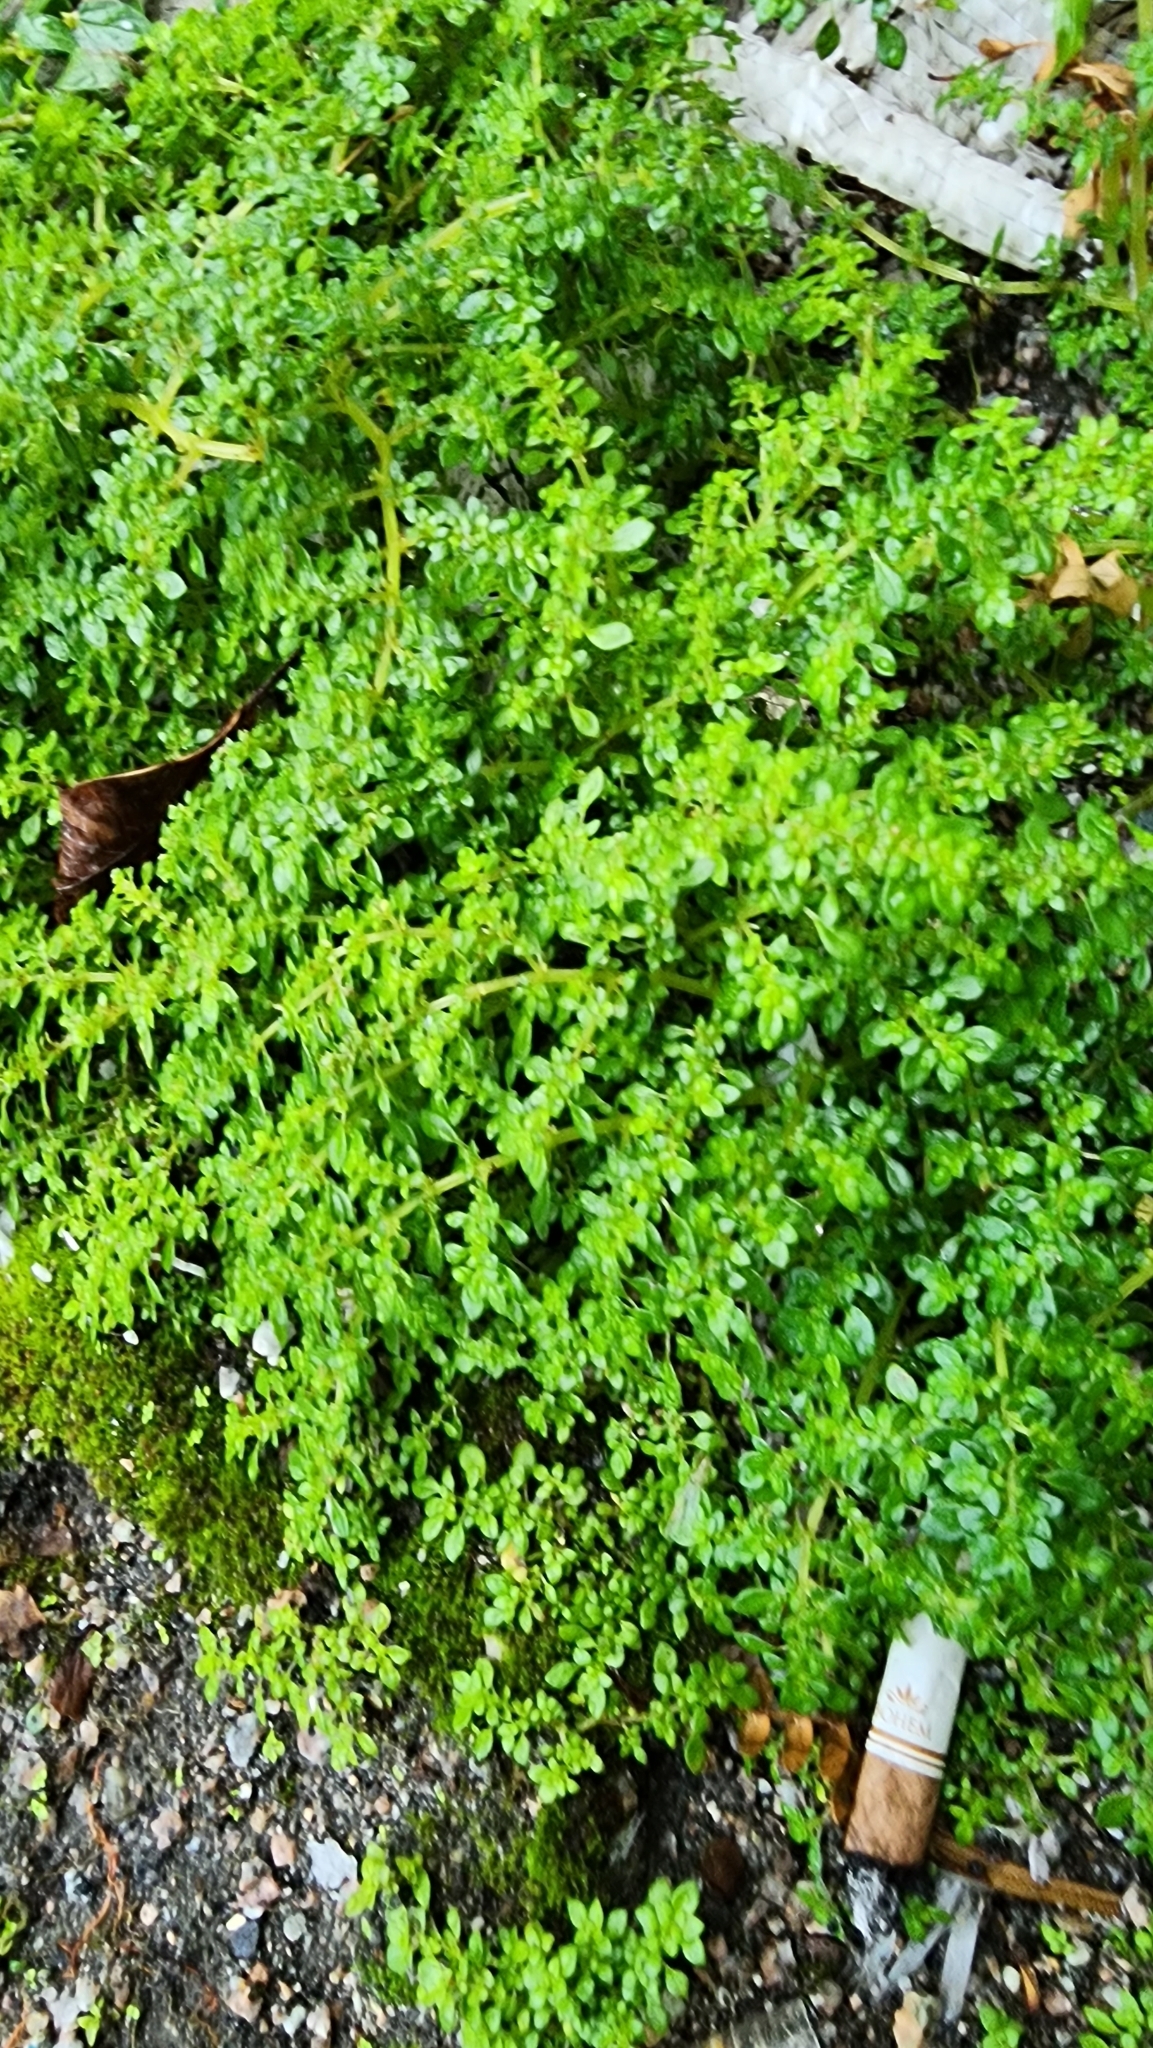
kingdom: Plantae
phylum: Tracheophyta
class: Magnoliopsida
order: Rosales
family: Urticaceae
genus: Pilea
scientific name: Pilea microphylla
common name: Artillery-plant
